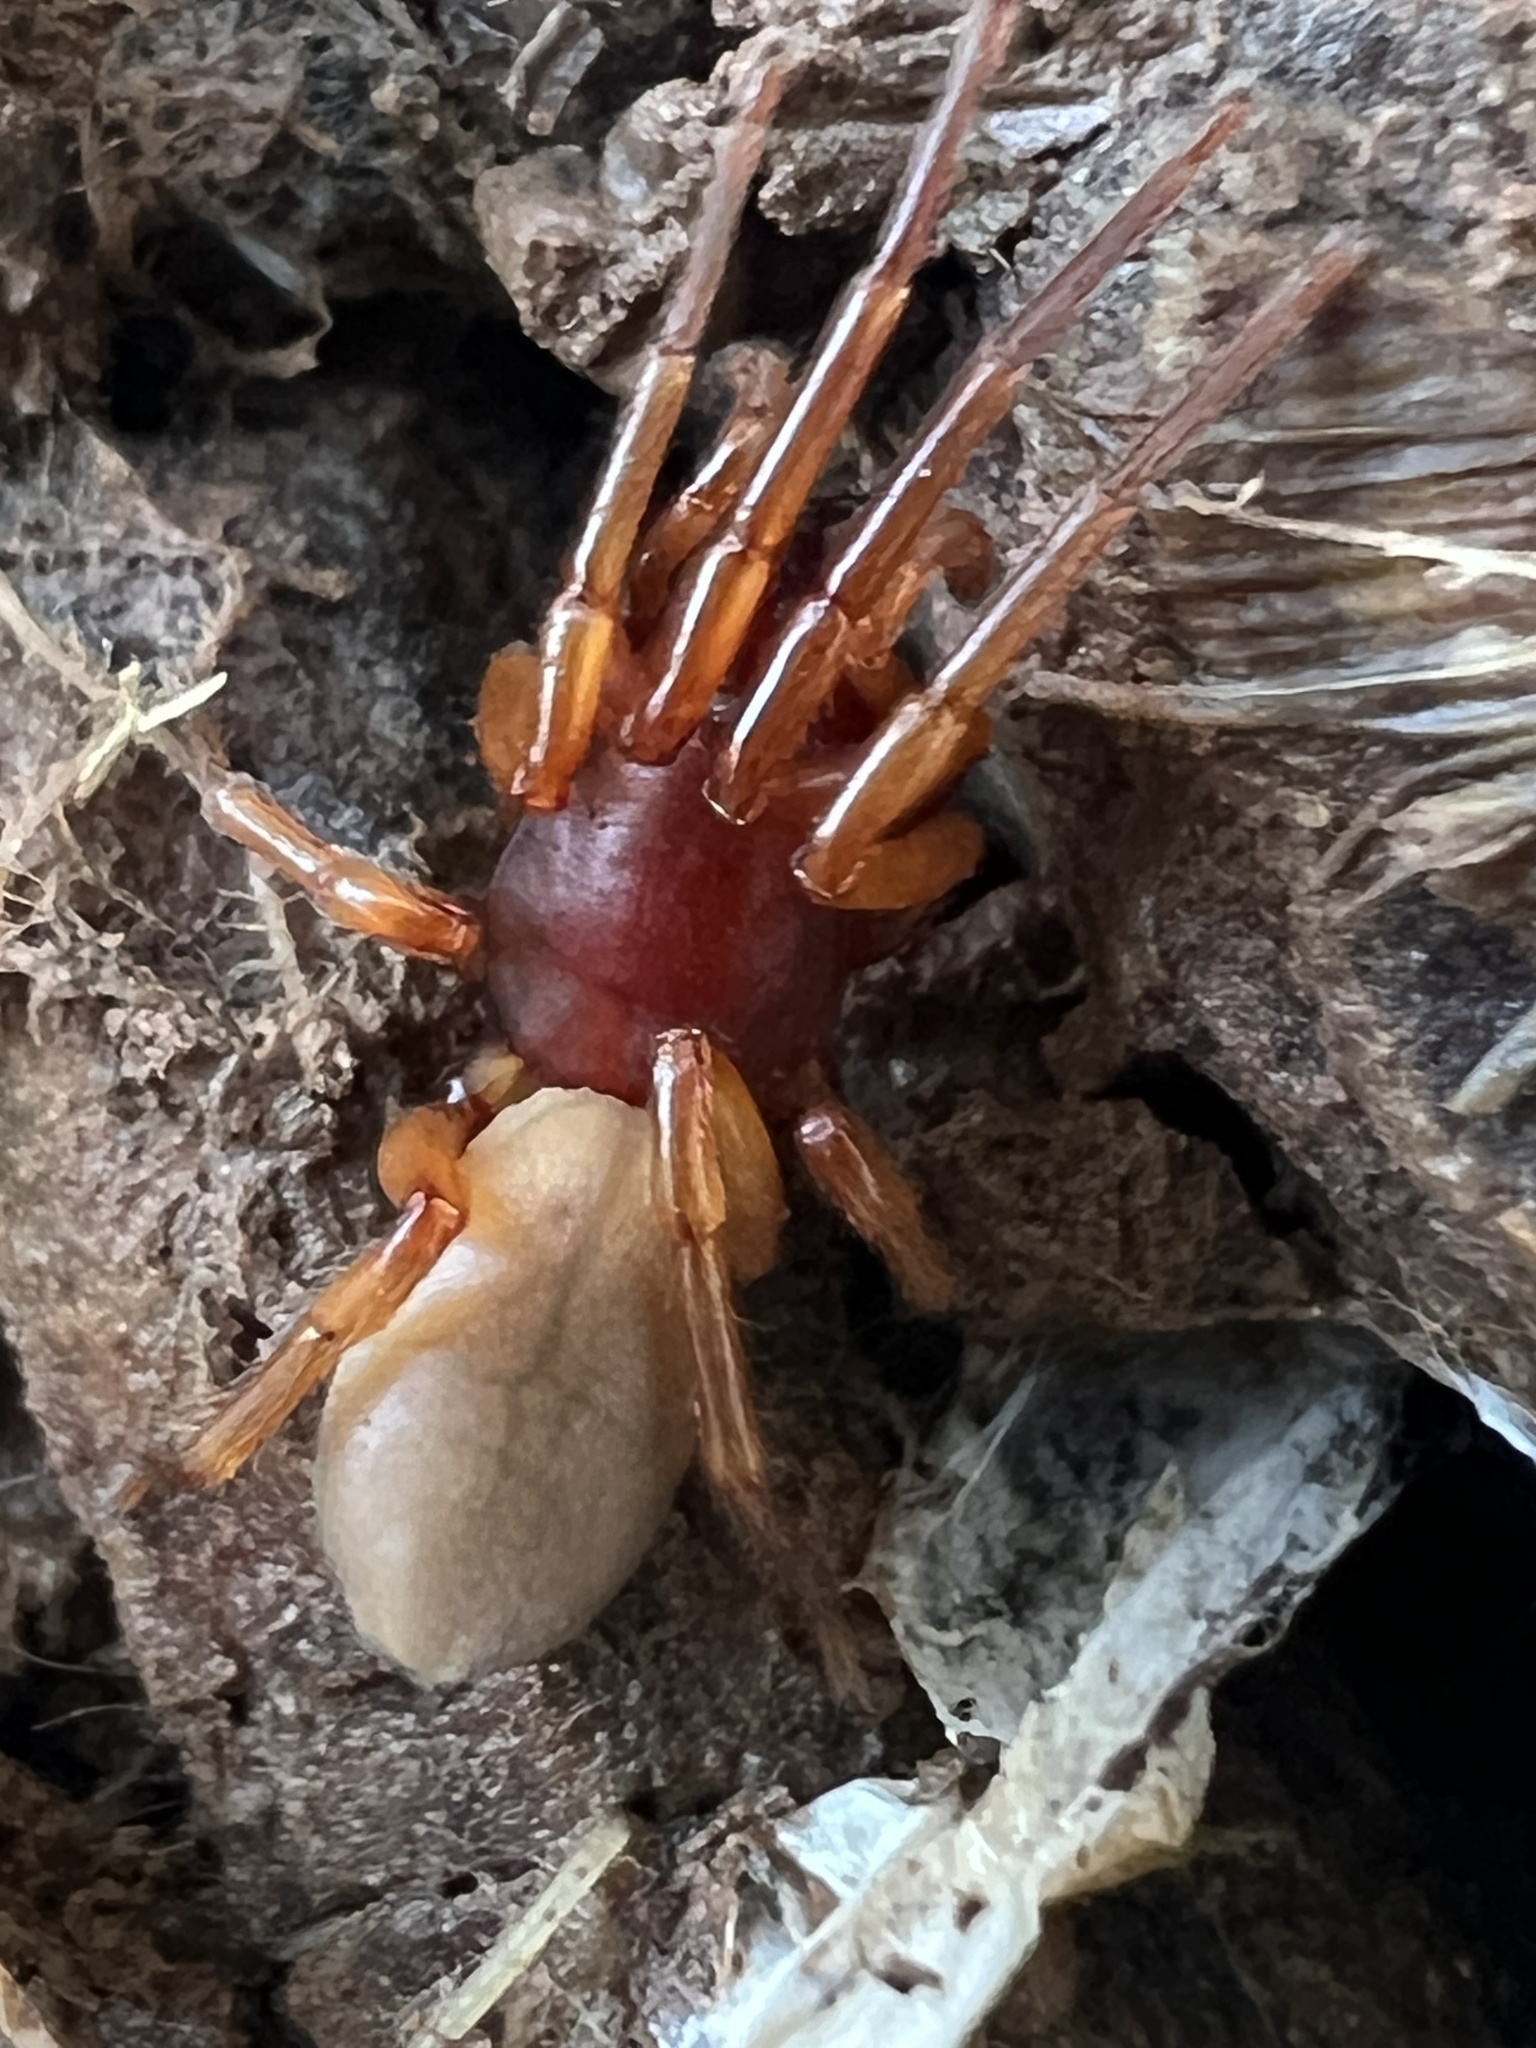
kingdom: Animalia
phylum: Arthropoda
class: Arachnida
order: Araneae
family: Dysderidae
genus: Dysdera
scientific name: Dysdera crocata
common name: Woodlouse spider
